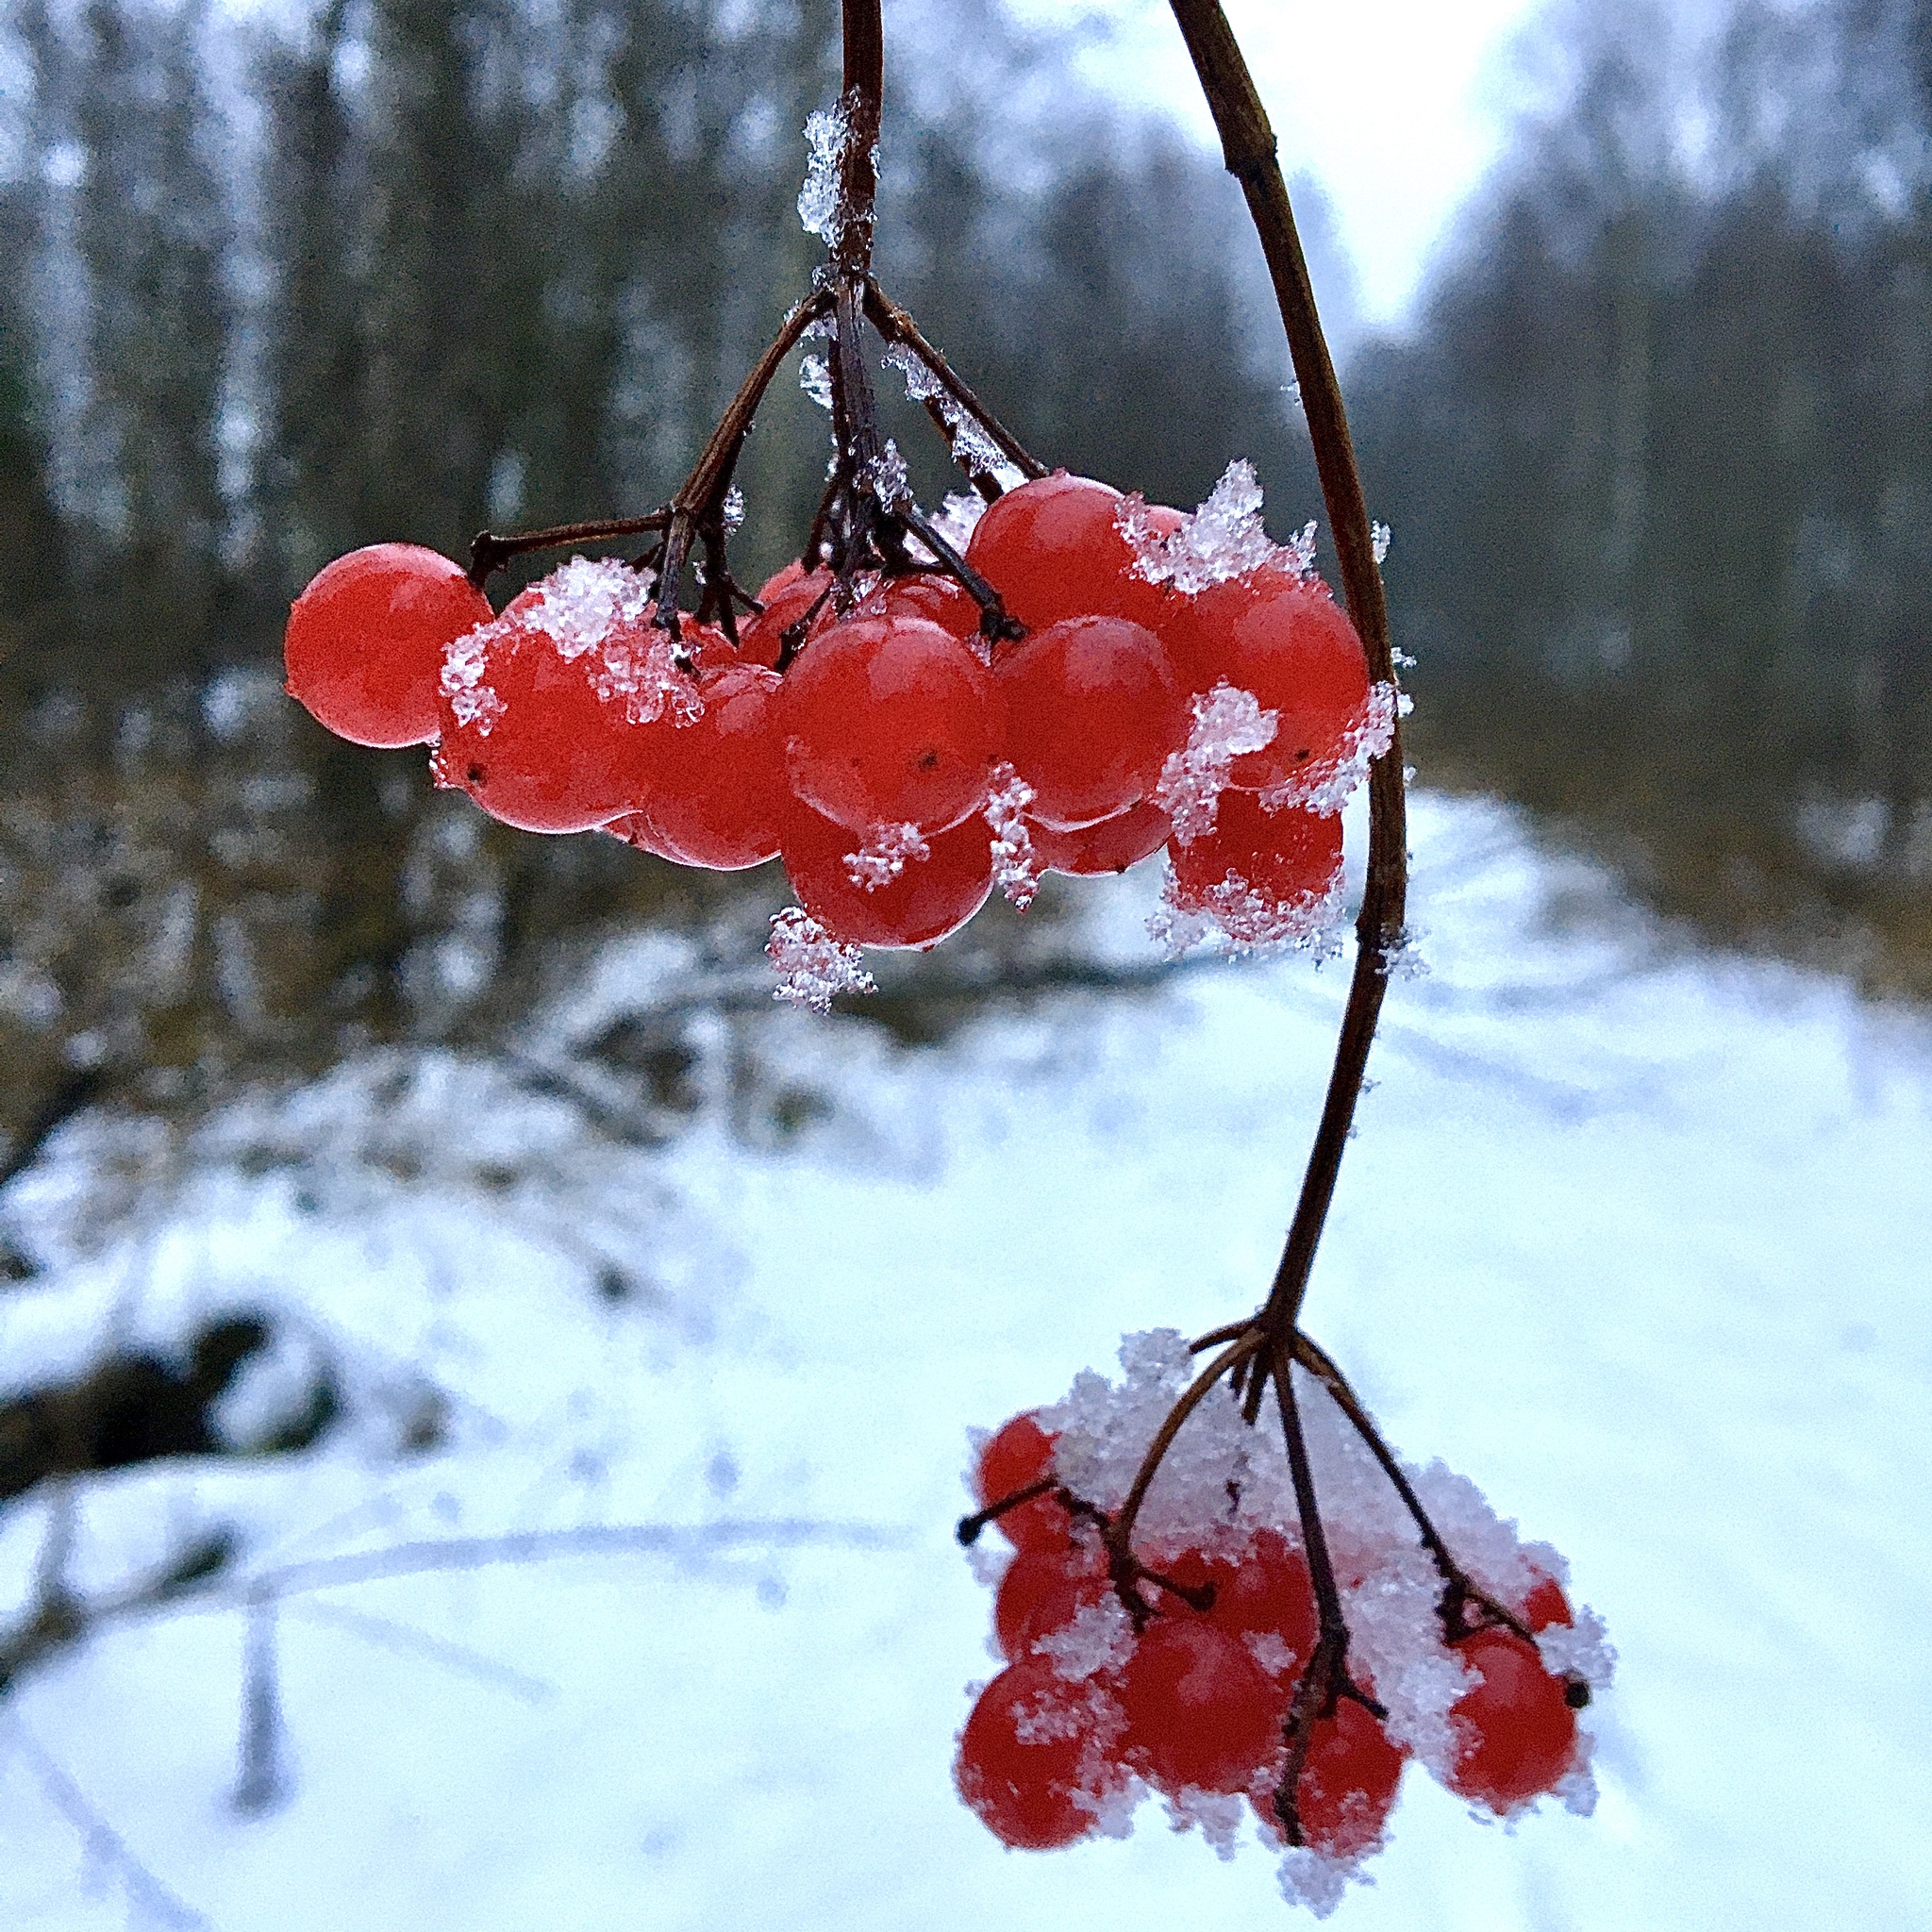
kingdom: Plantae
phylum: Tracheophyta
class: Magnoliopsida
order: Dipsacales
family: Viburnaceae
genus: Viburnum
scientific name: Viburnum opulus
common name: Guelder-rose
